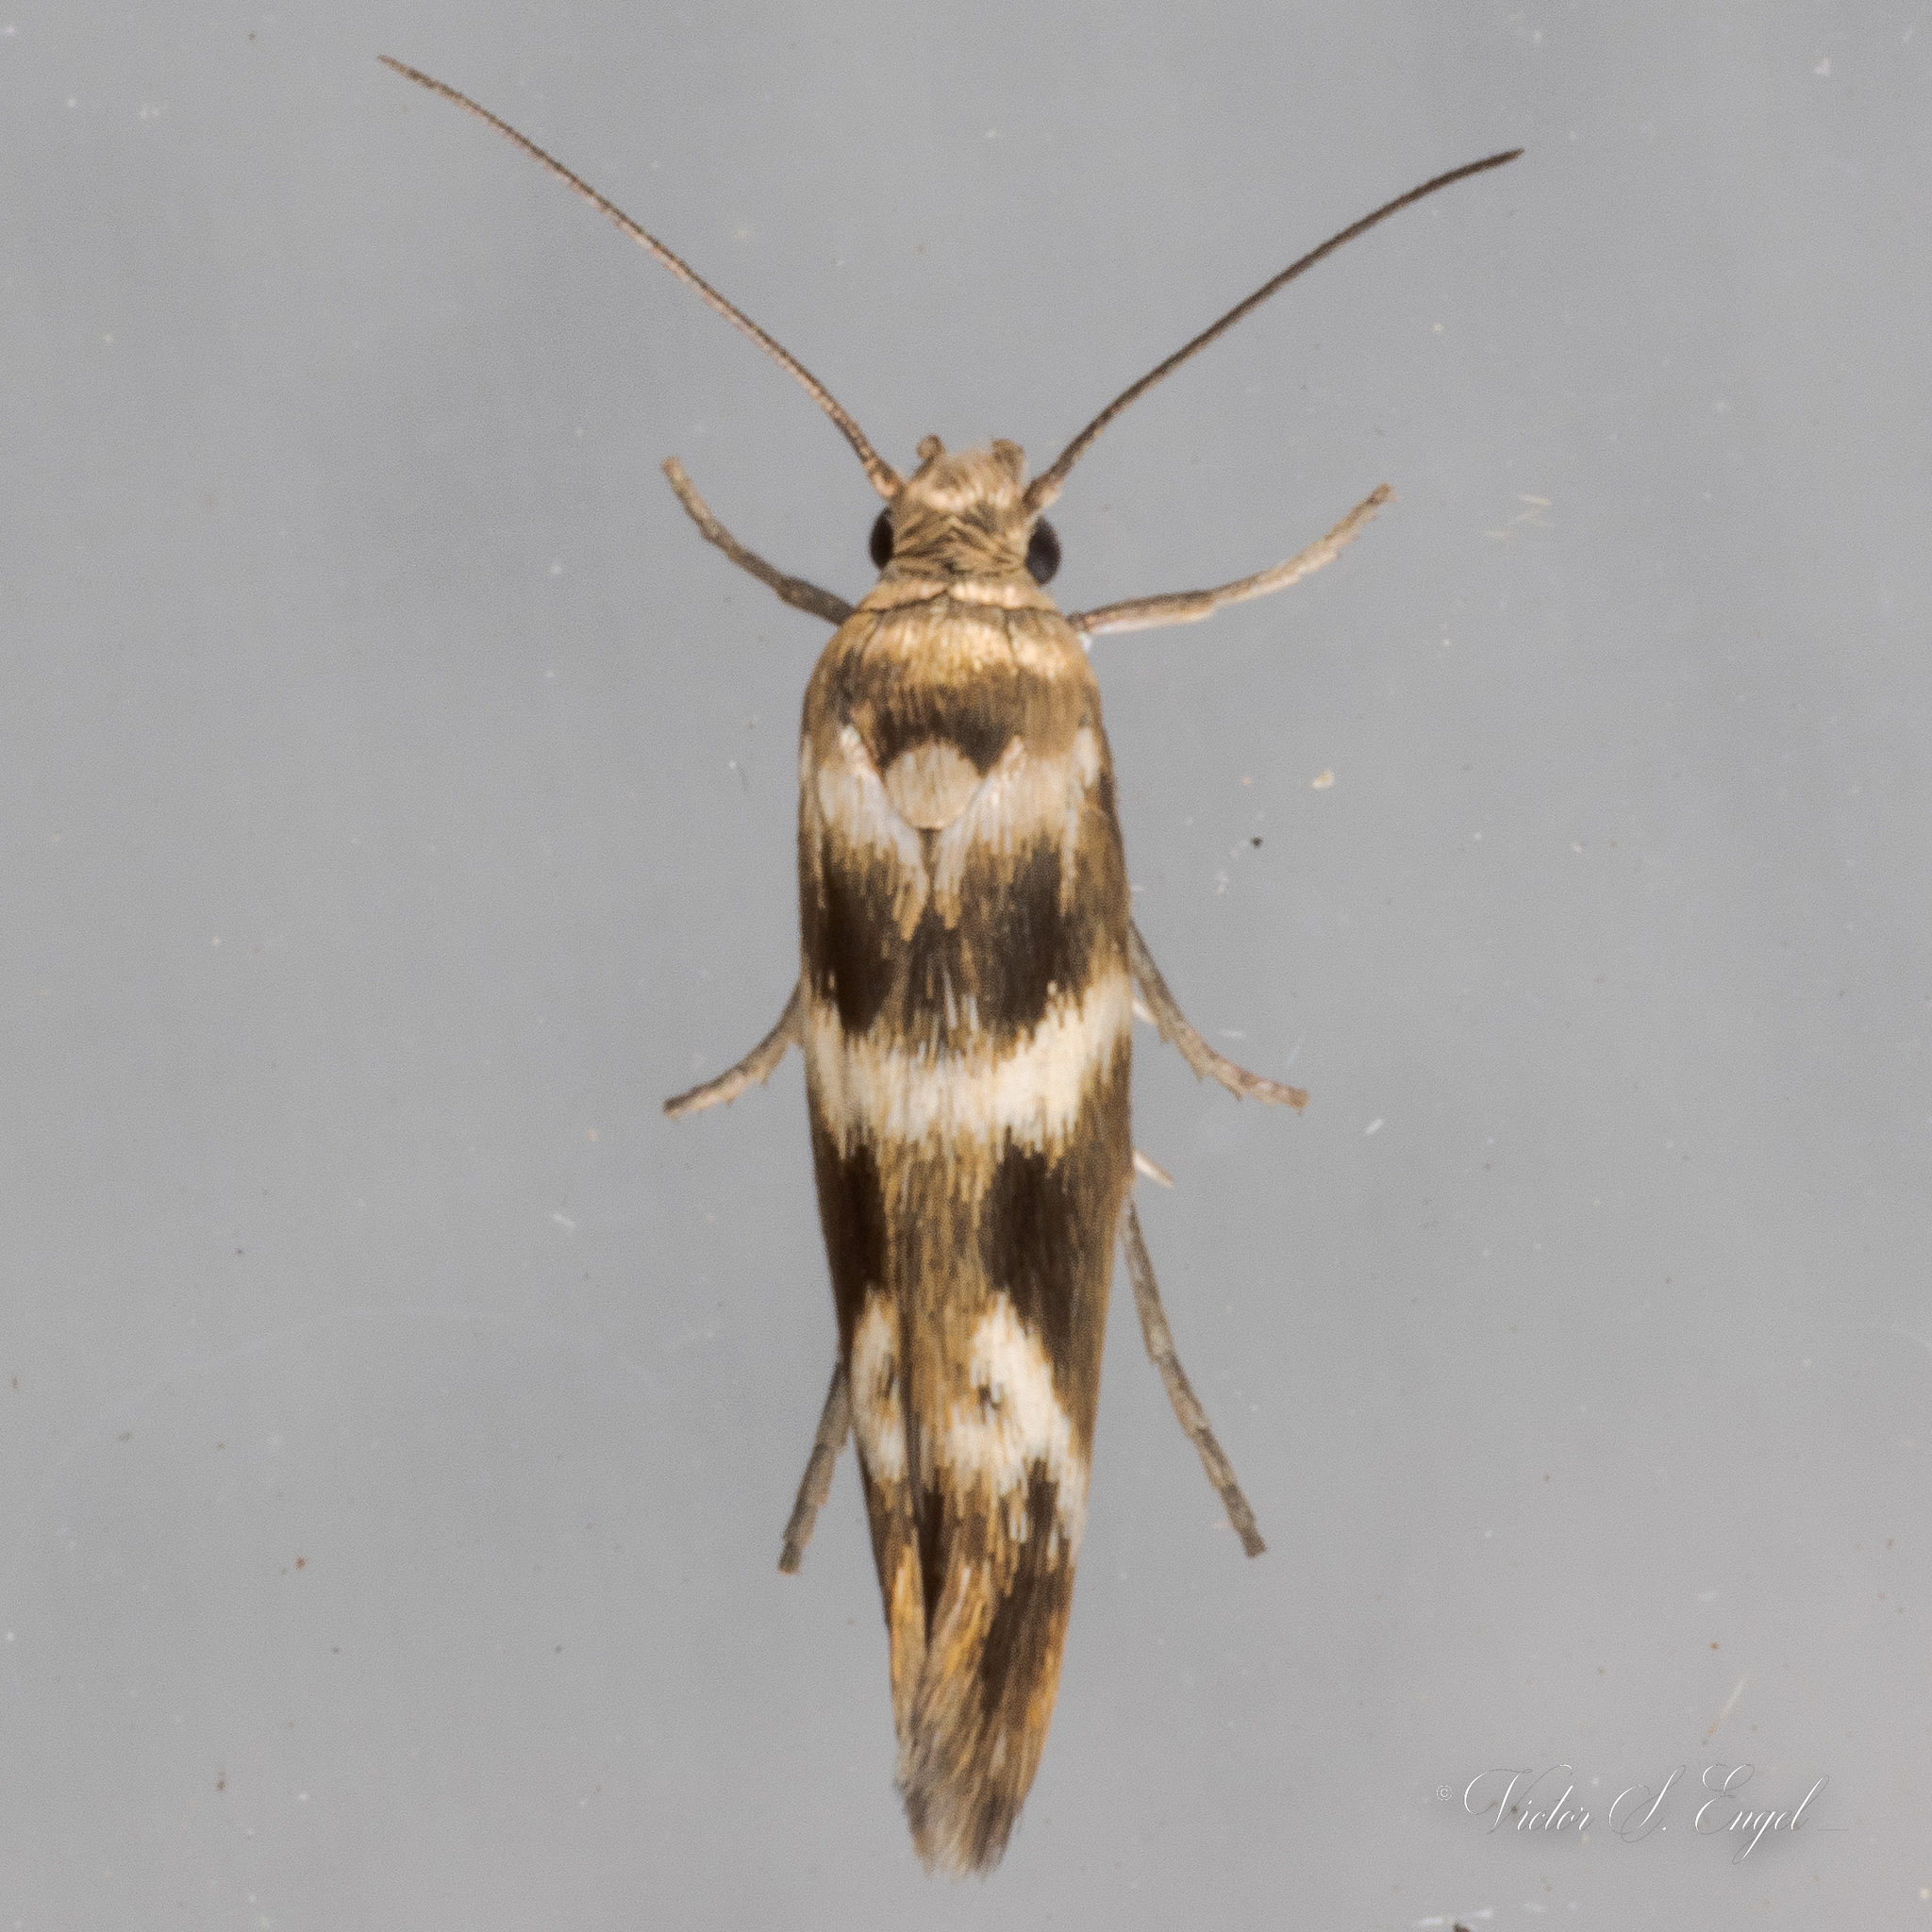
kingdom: Animalia
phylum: Arthropoda
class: Insecta
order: Lepidoptera
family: Scythrididae
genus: Scythris
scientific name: Scythris trivinctella
